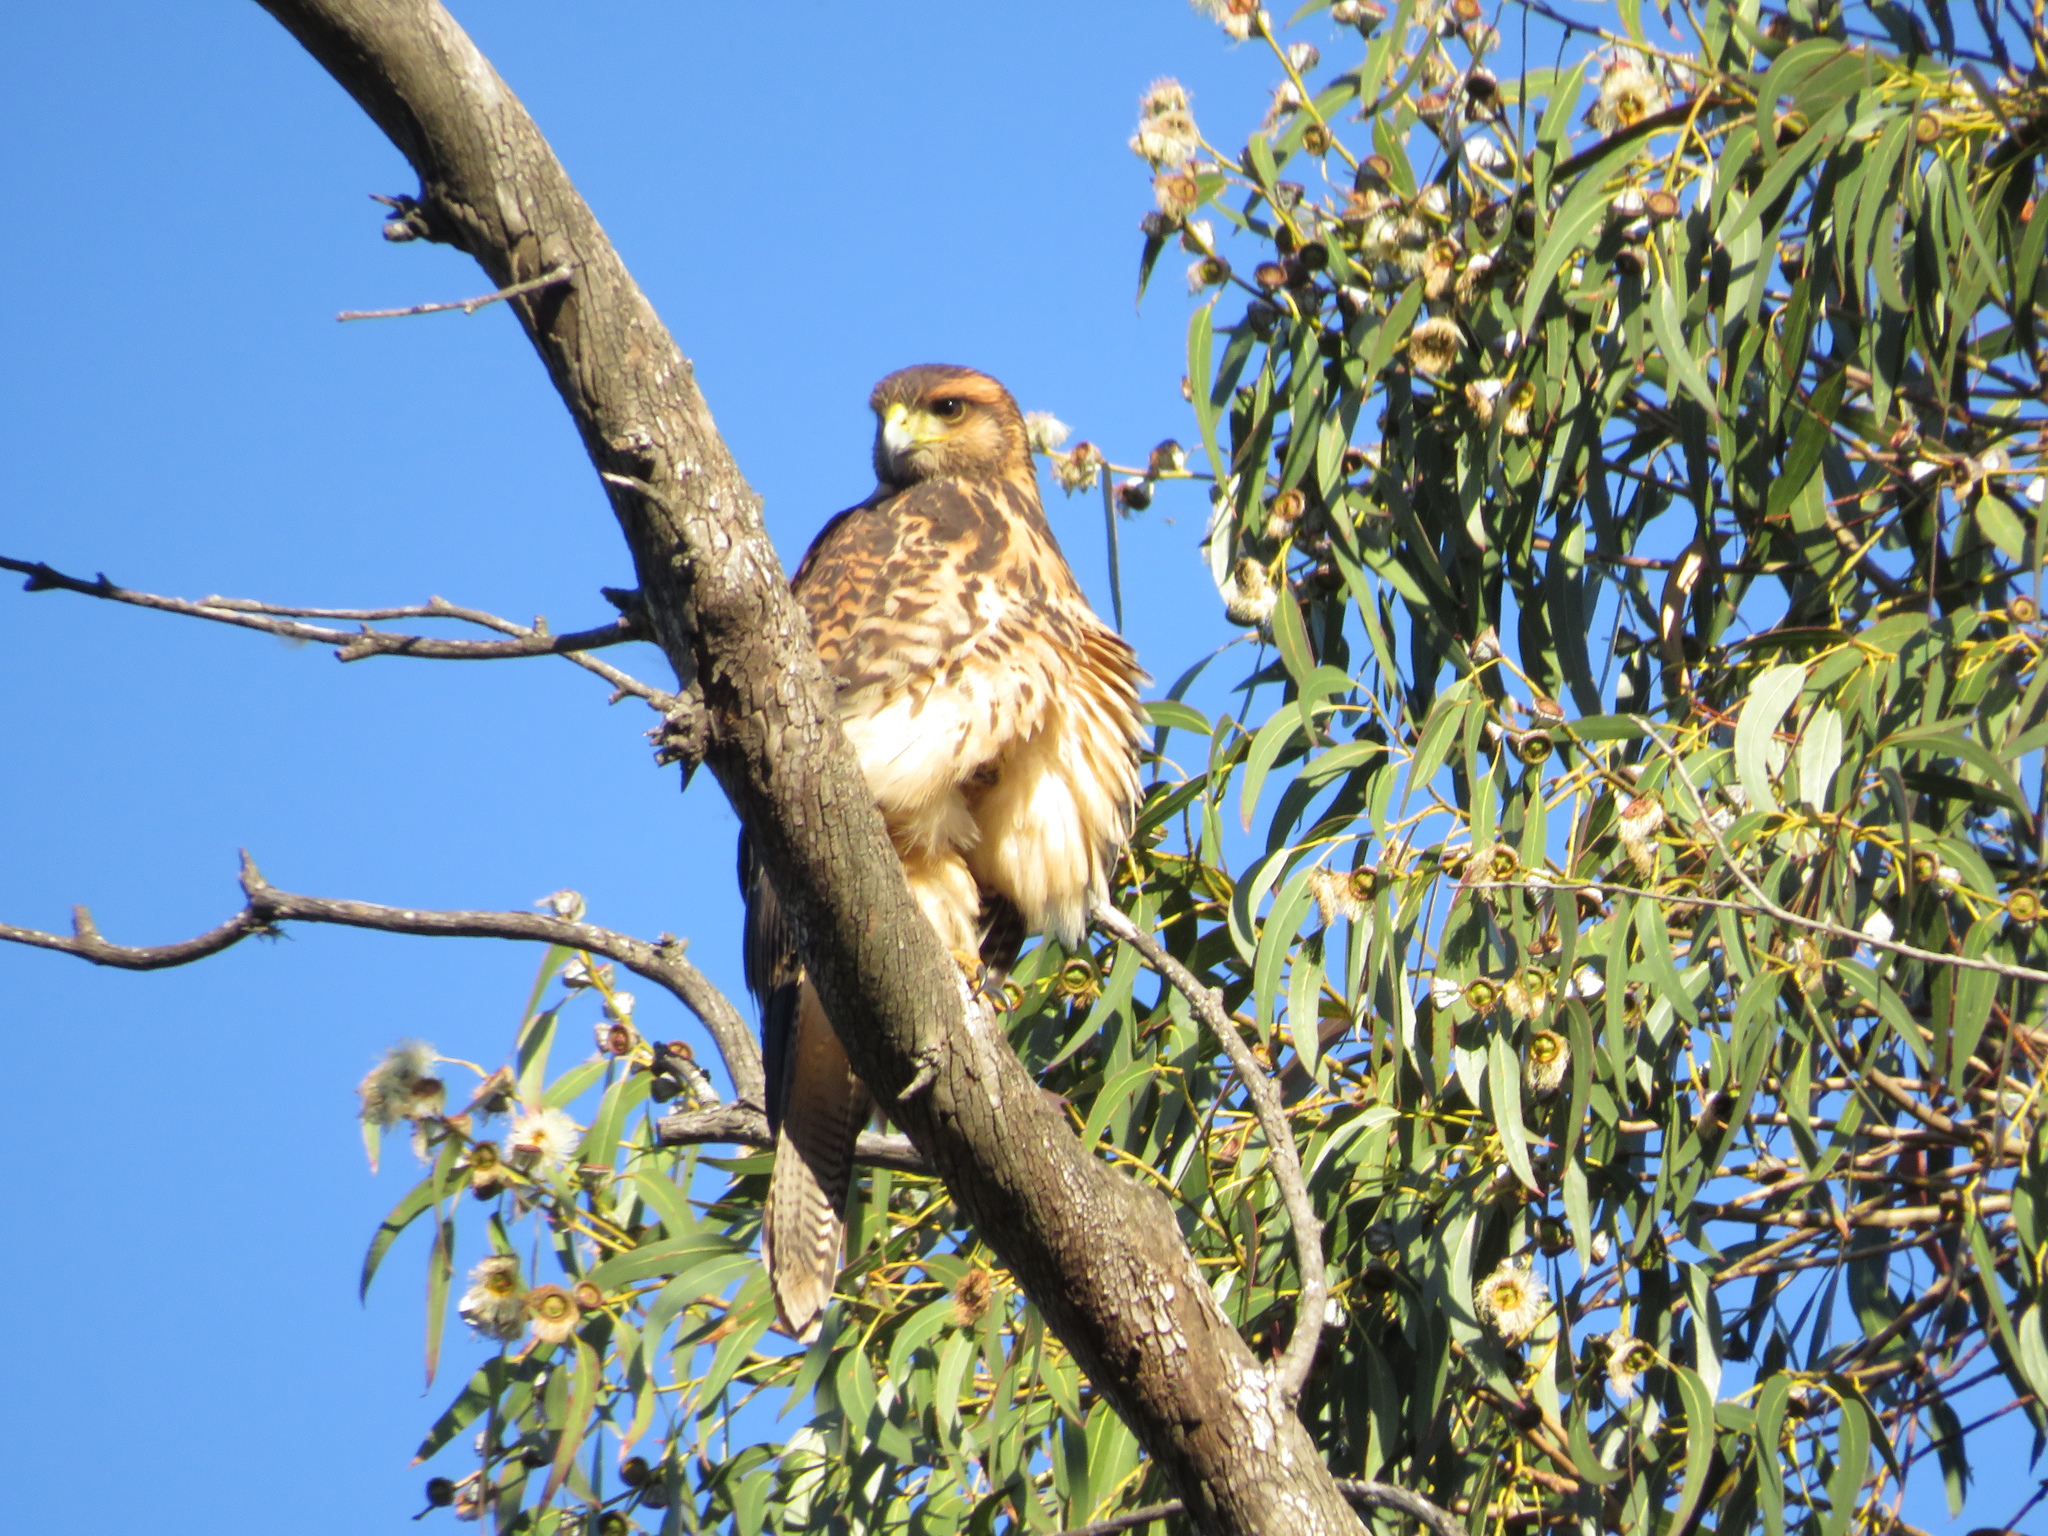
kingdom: Animalia
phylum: Chordata
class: Aves
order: Accipitriformes
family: Accipitridae
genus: Parabuteo
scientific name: Parabuteo unicinctus
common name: Harris's hawk
